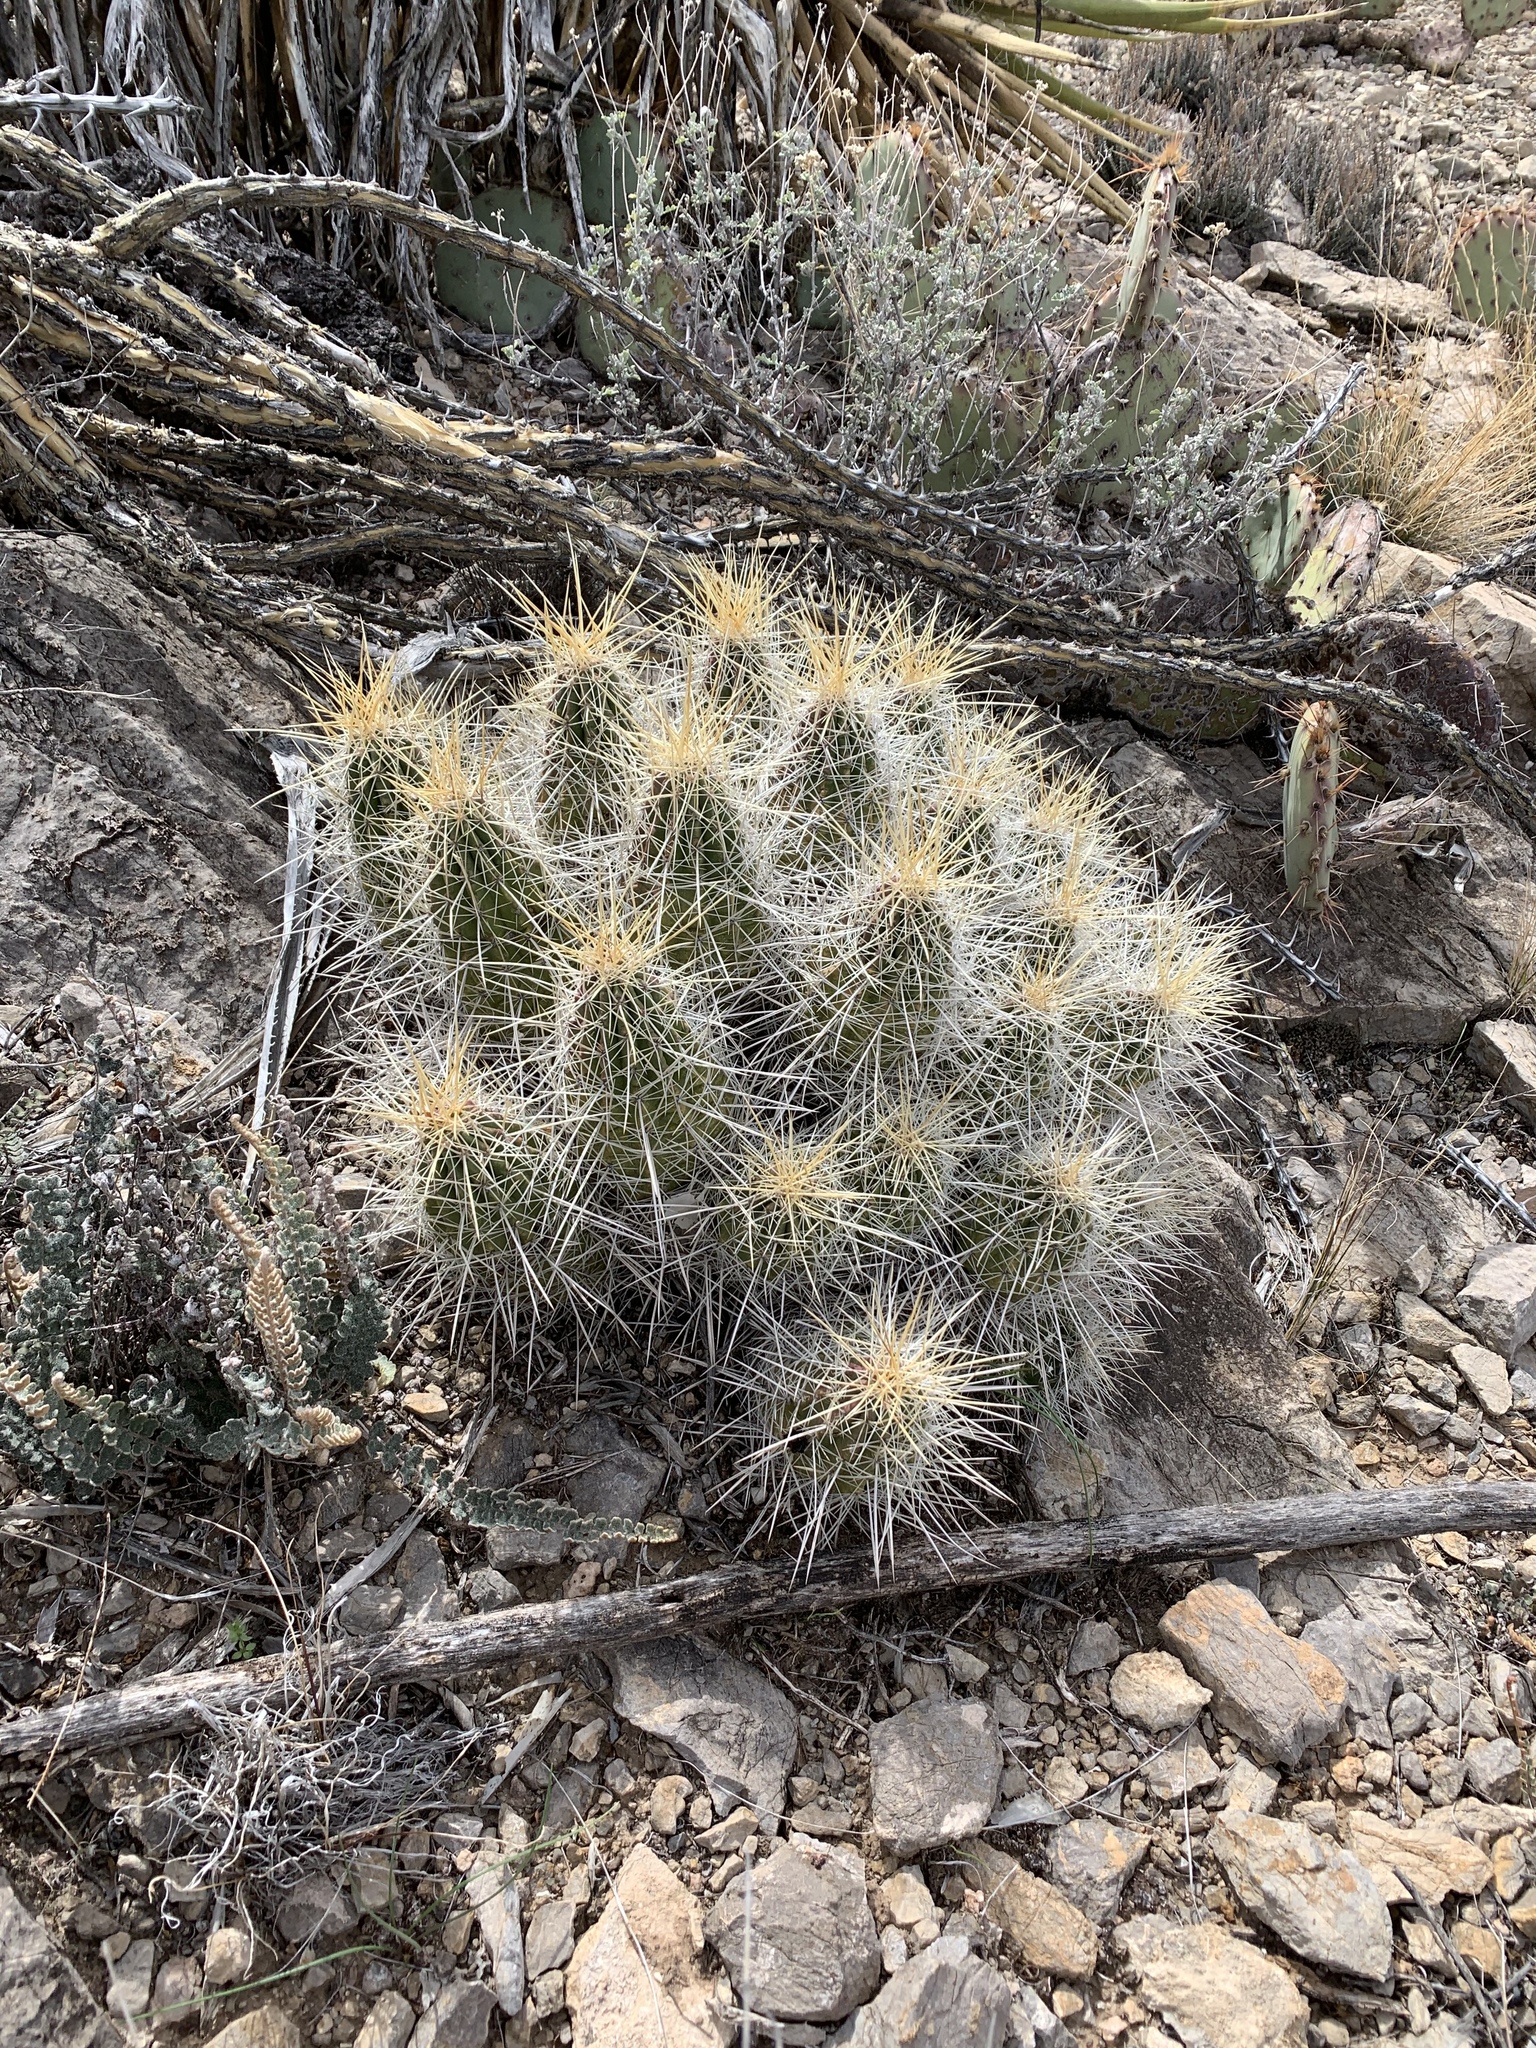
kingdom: Plantae
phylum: Tracheophyta
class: Magnoliopsida
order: Caryophyllales
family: Cactaceae
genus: Echinocereus
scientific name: Echinocereus stramineus
